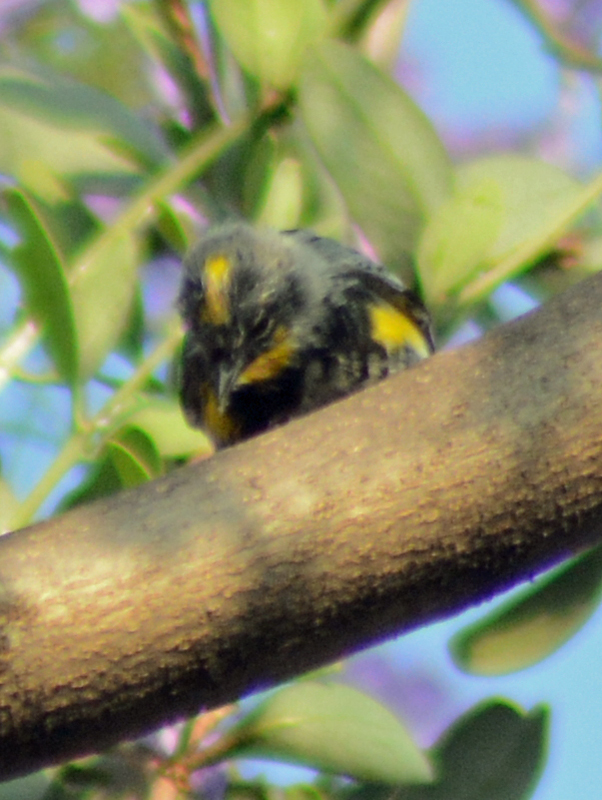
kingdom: Animalia
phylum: Chordata
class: Aves
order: Passeriformes
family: Parulidae
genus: Setophaga
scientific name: Setophaga coronata
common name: Myrtle warbler
